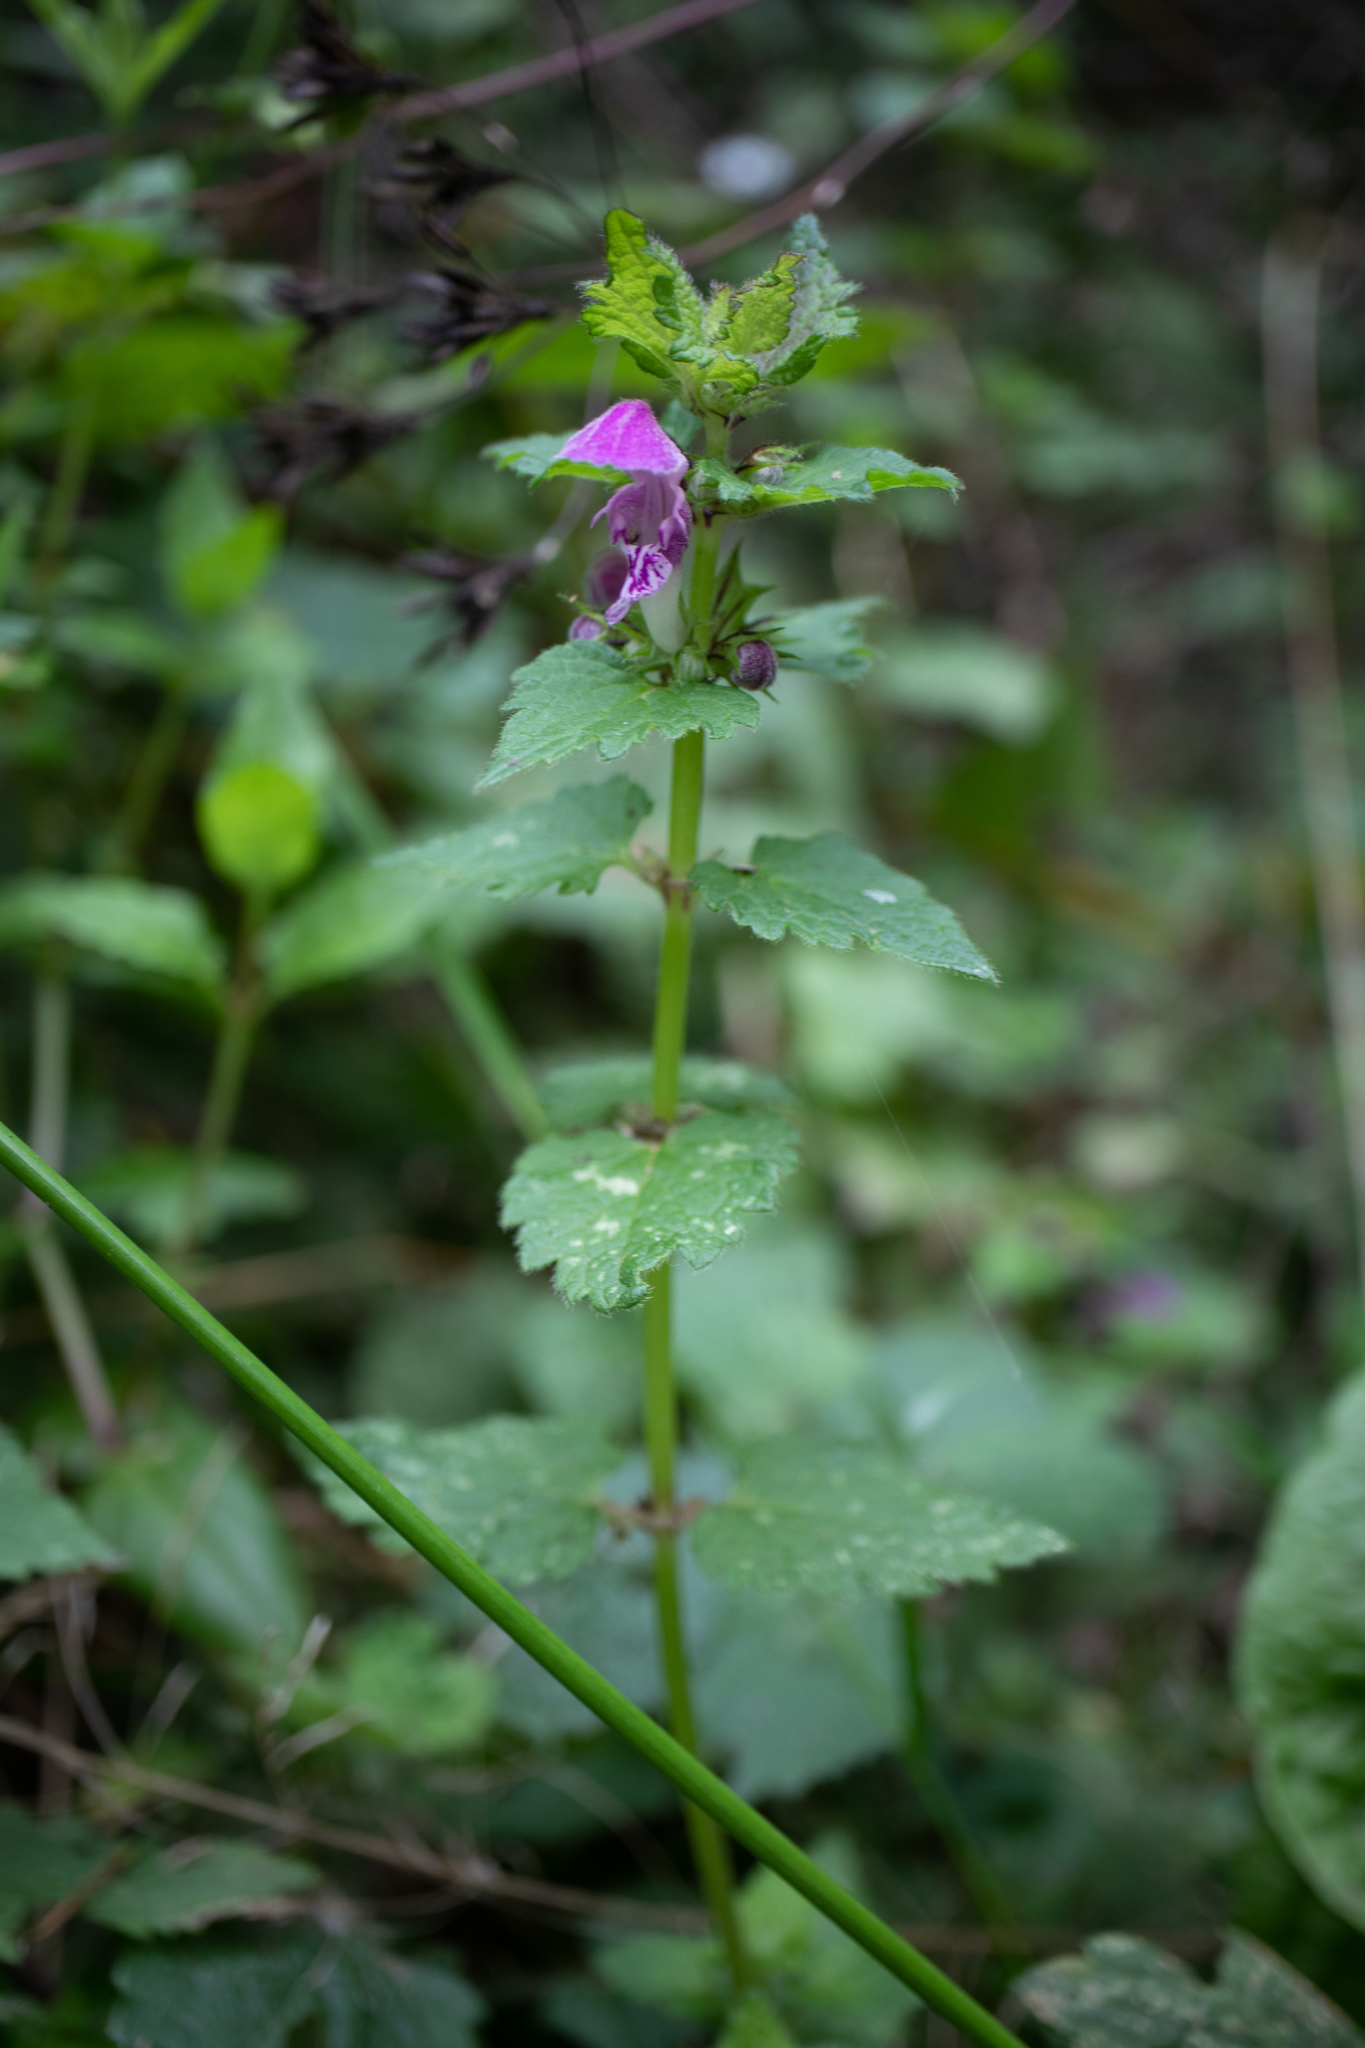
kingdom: Plantae
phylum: Tracheophyta
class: Magnoliopsida
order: Lamiales
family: Lamiaceae
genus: Lamium
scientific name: Lamium maculatum
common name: Spotted dead-nettle
